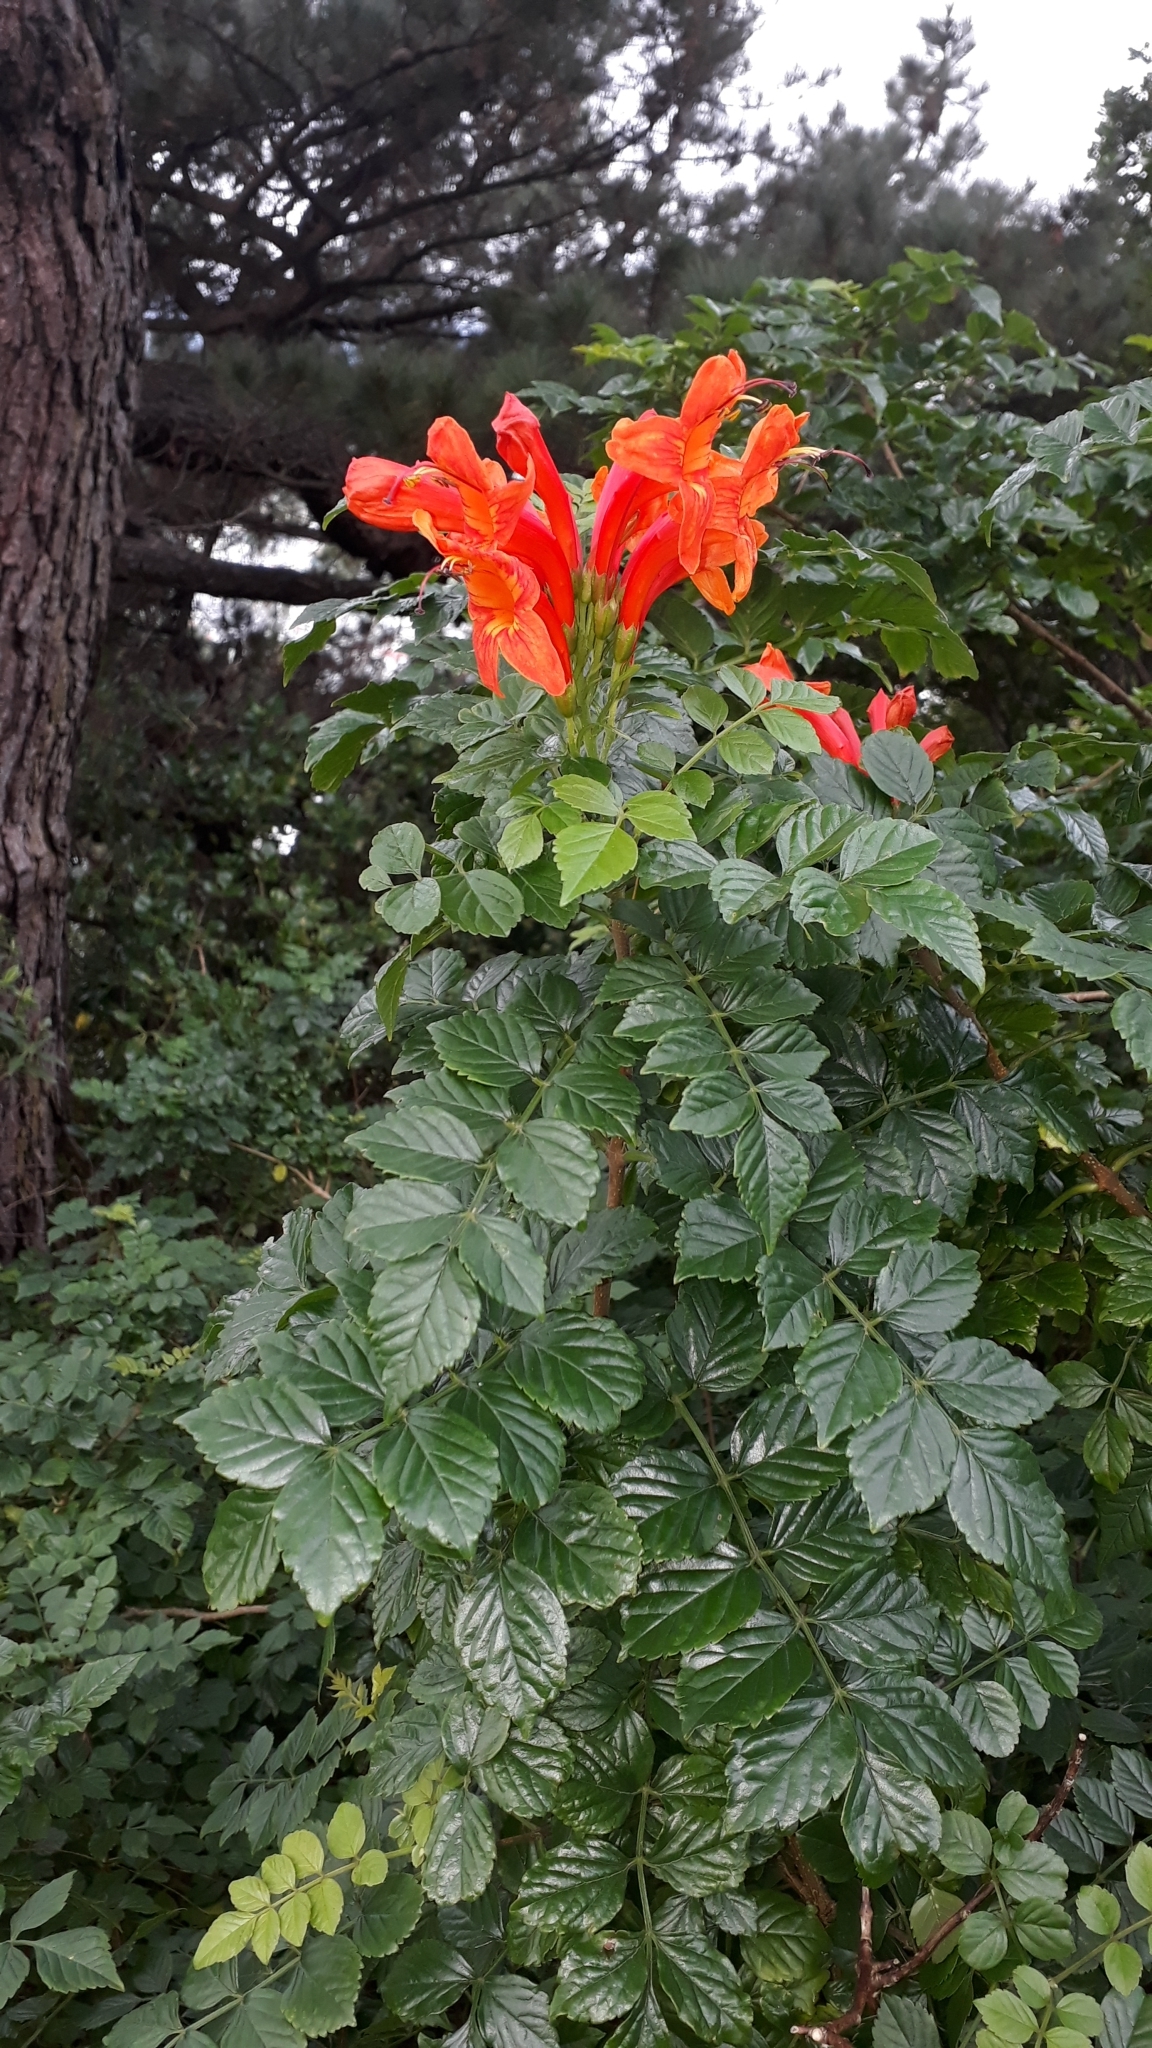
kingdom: Plantae
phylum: Tracheophyta
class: Magnoliopsida
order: Lamiales
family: Bignoniaceae
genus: Tecomaria
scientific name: Tecomaria capensis
